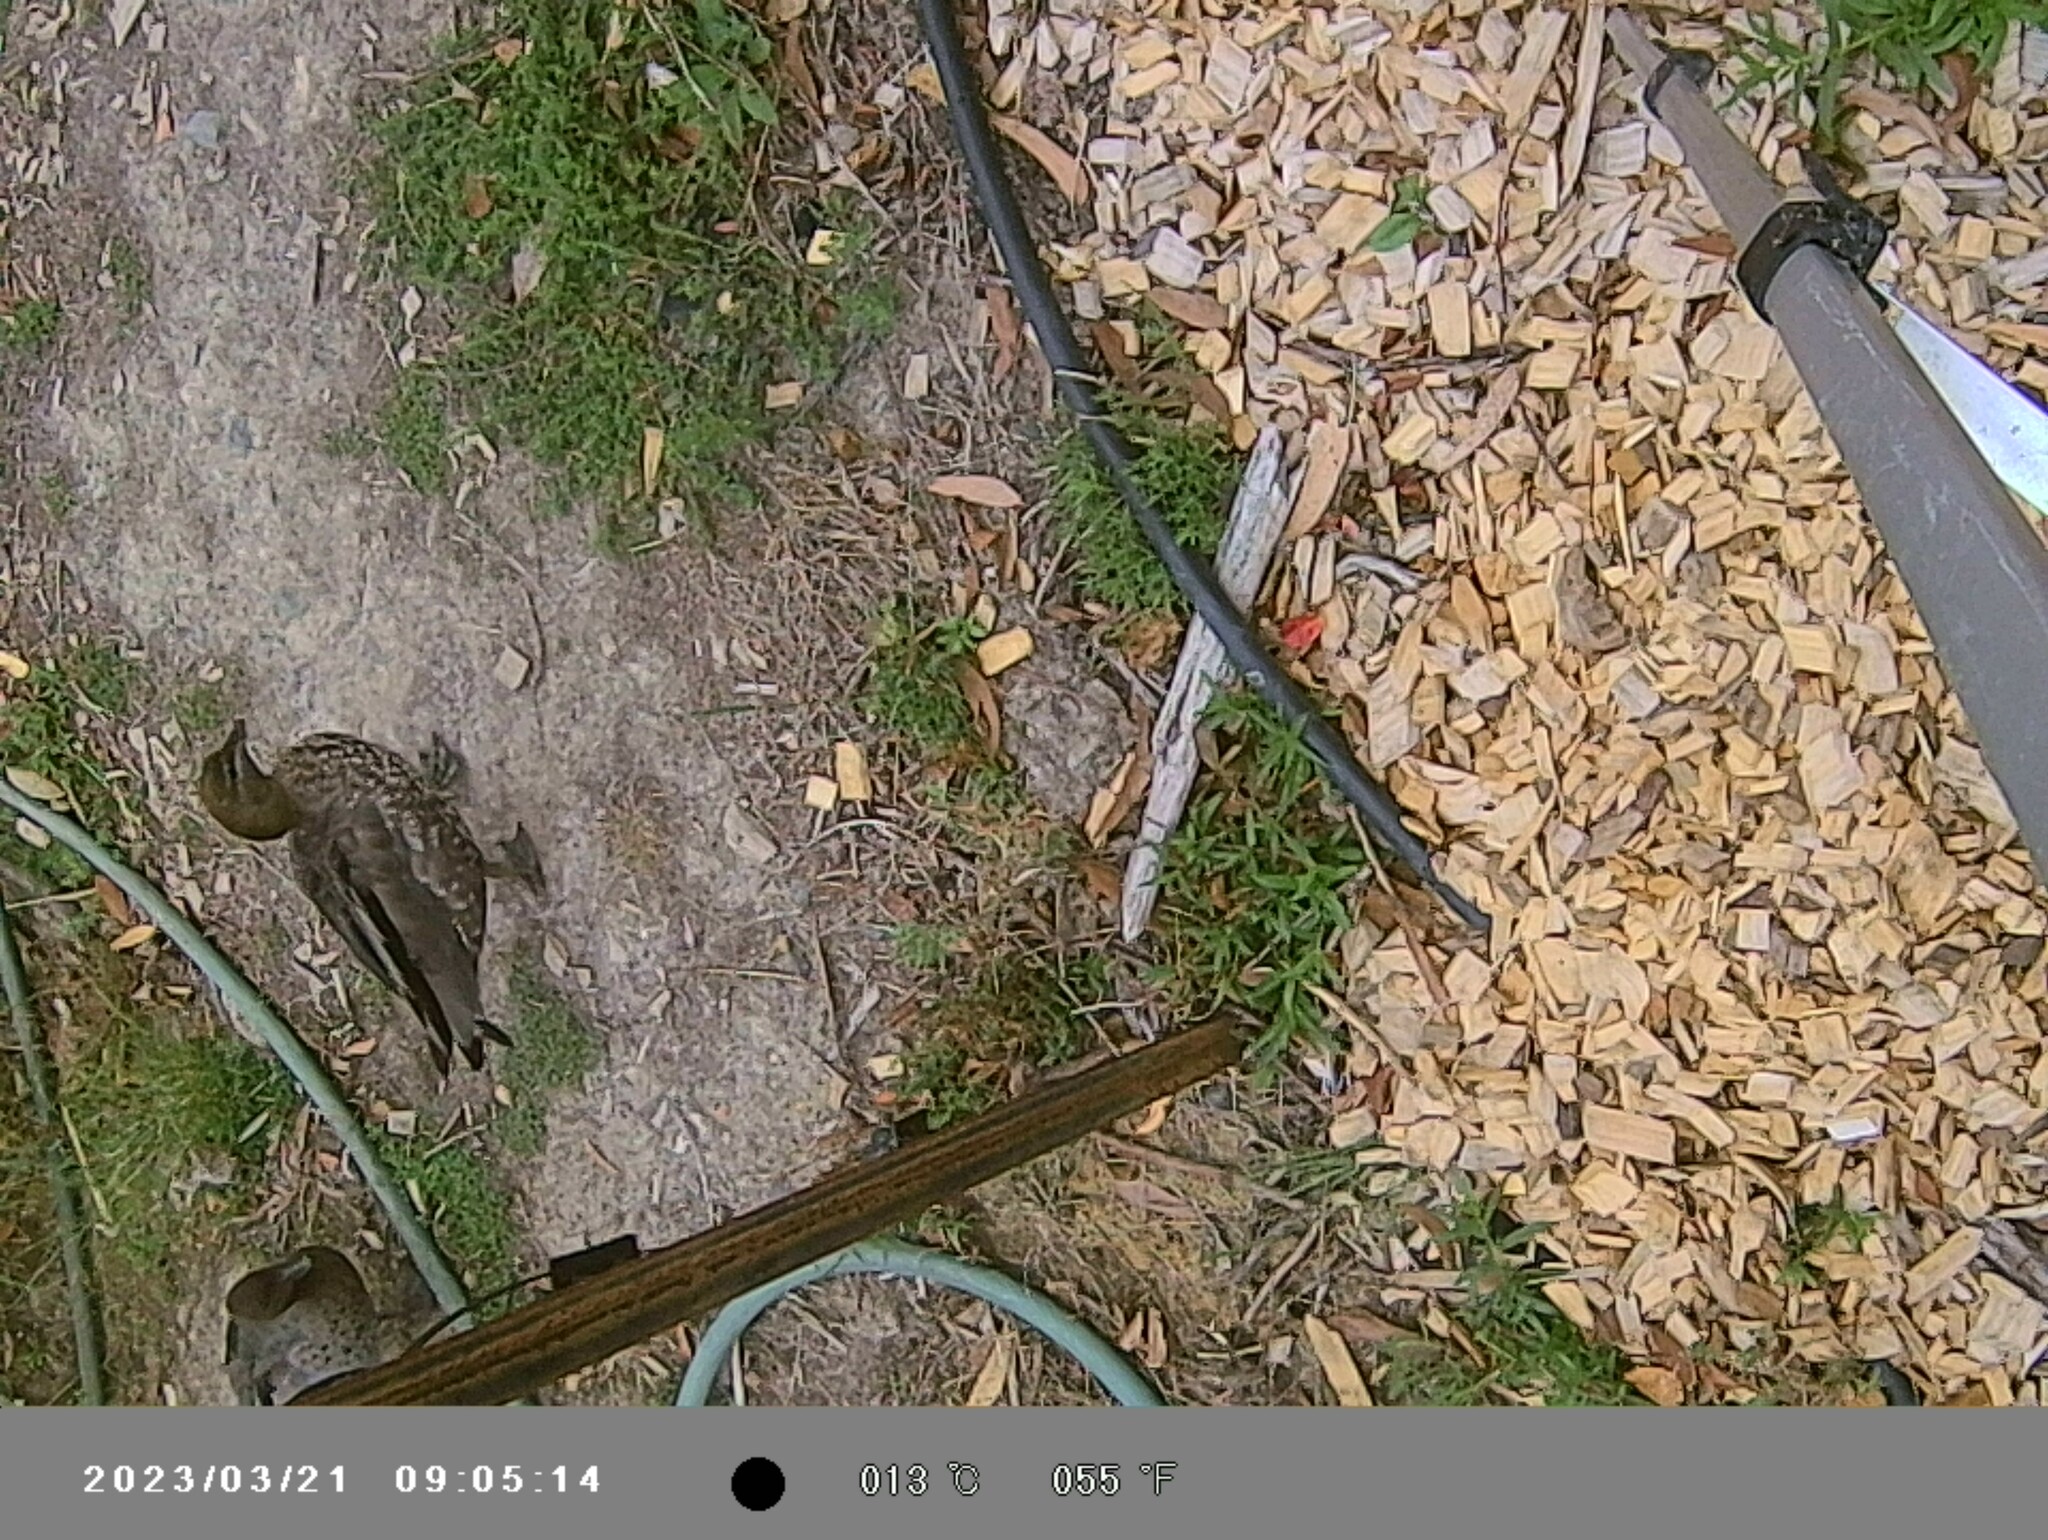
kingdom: Animalia
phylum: Chordata
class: Aves
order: Anseriformes
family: Anatidae
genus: Chenonetta
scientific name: Chenonetta jubata
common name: Maned duck
